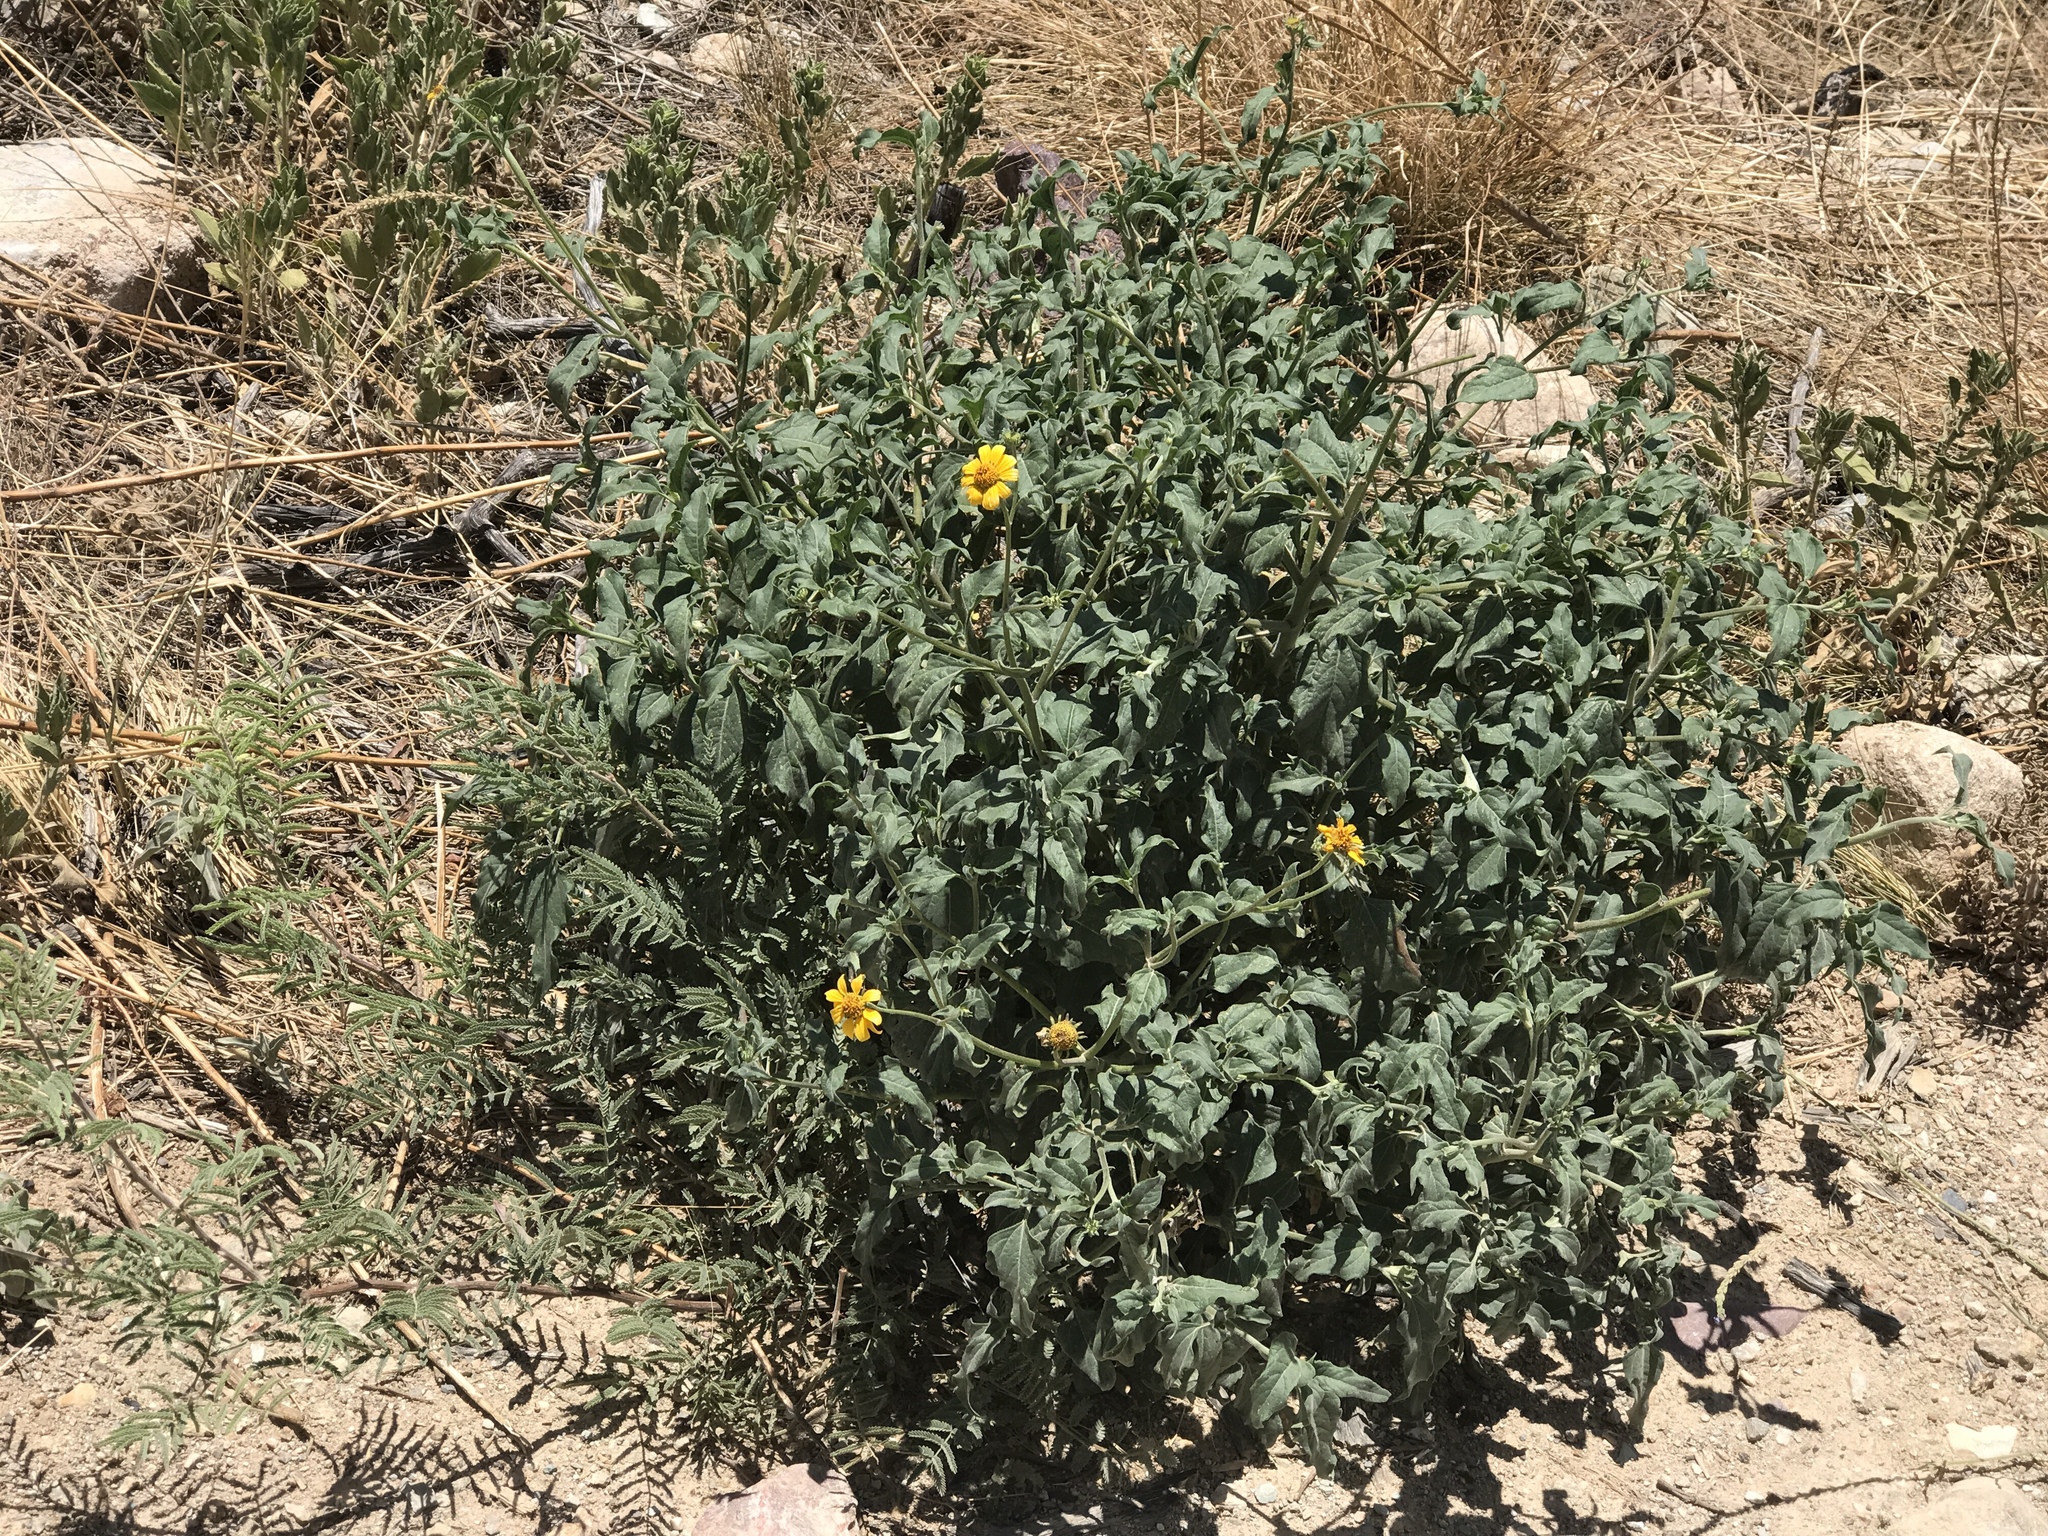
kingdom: Plantae
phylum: Tracheophyta
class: Magnoliopsida
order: Asterales
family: Asteraceae
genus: Verbesina
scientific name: Verbesina encelioides
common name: Golden crownbeard
